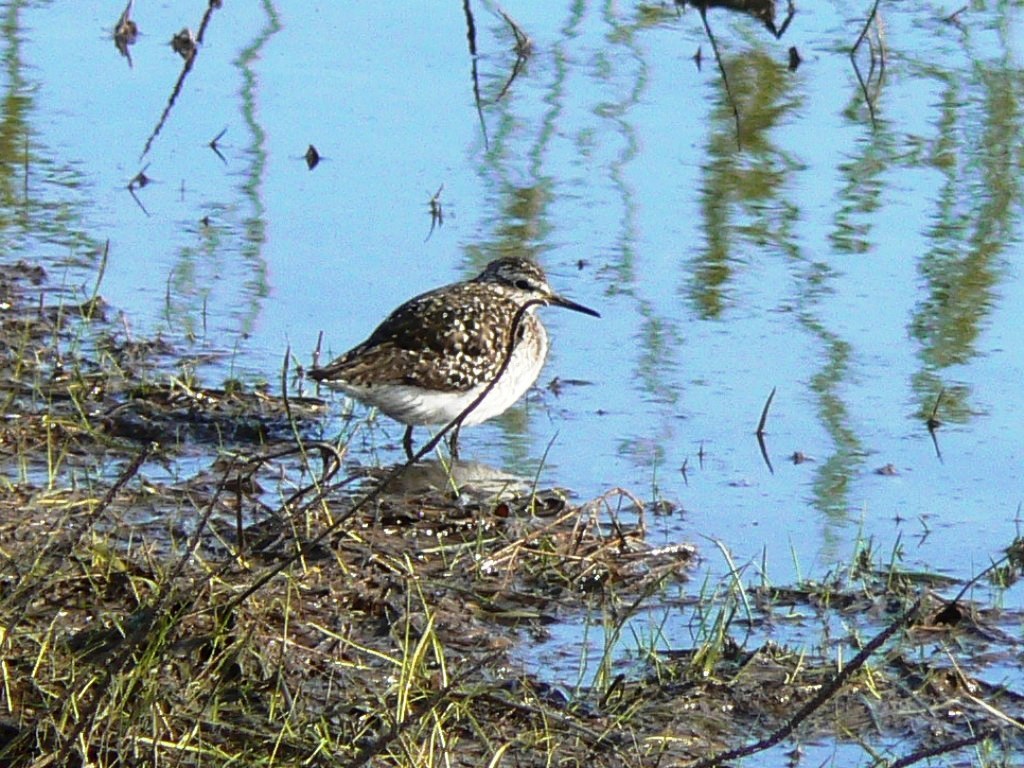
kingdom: Animalia
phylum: Chordata
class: Aves
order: Charadriiformes
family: Scolopacidae
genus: Tringa
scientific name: Tringa glareola
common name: Wood sandpiper
